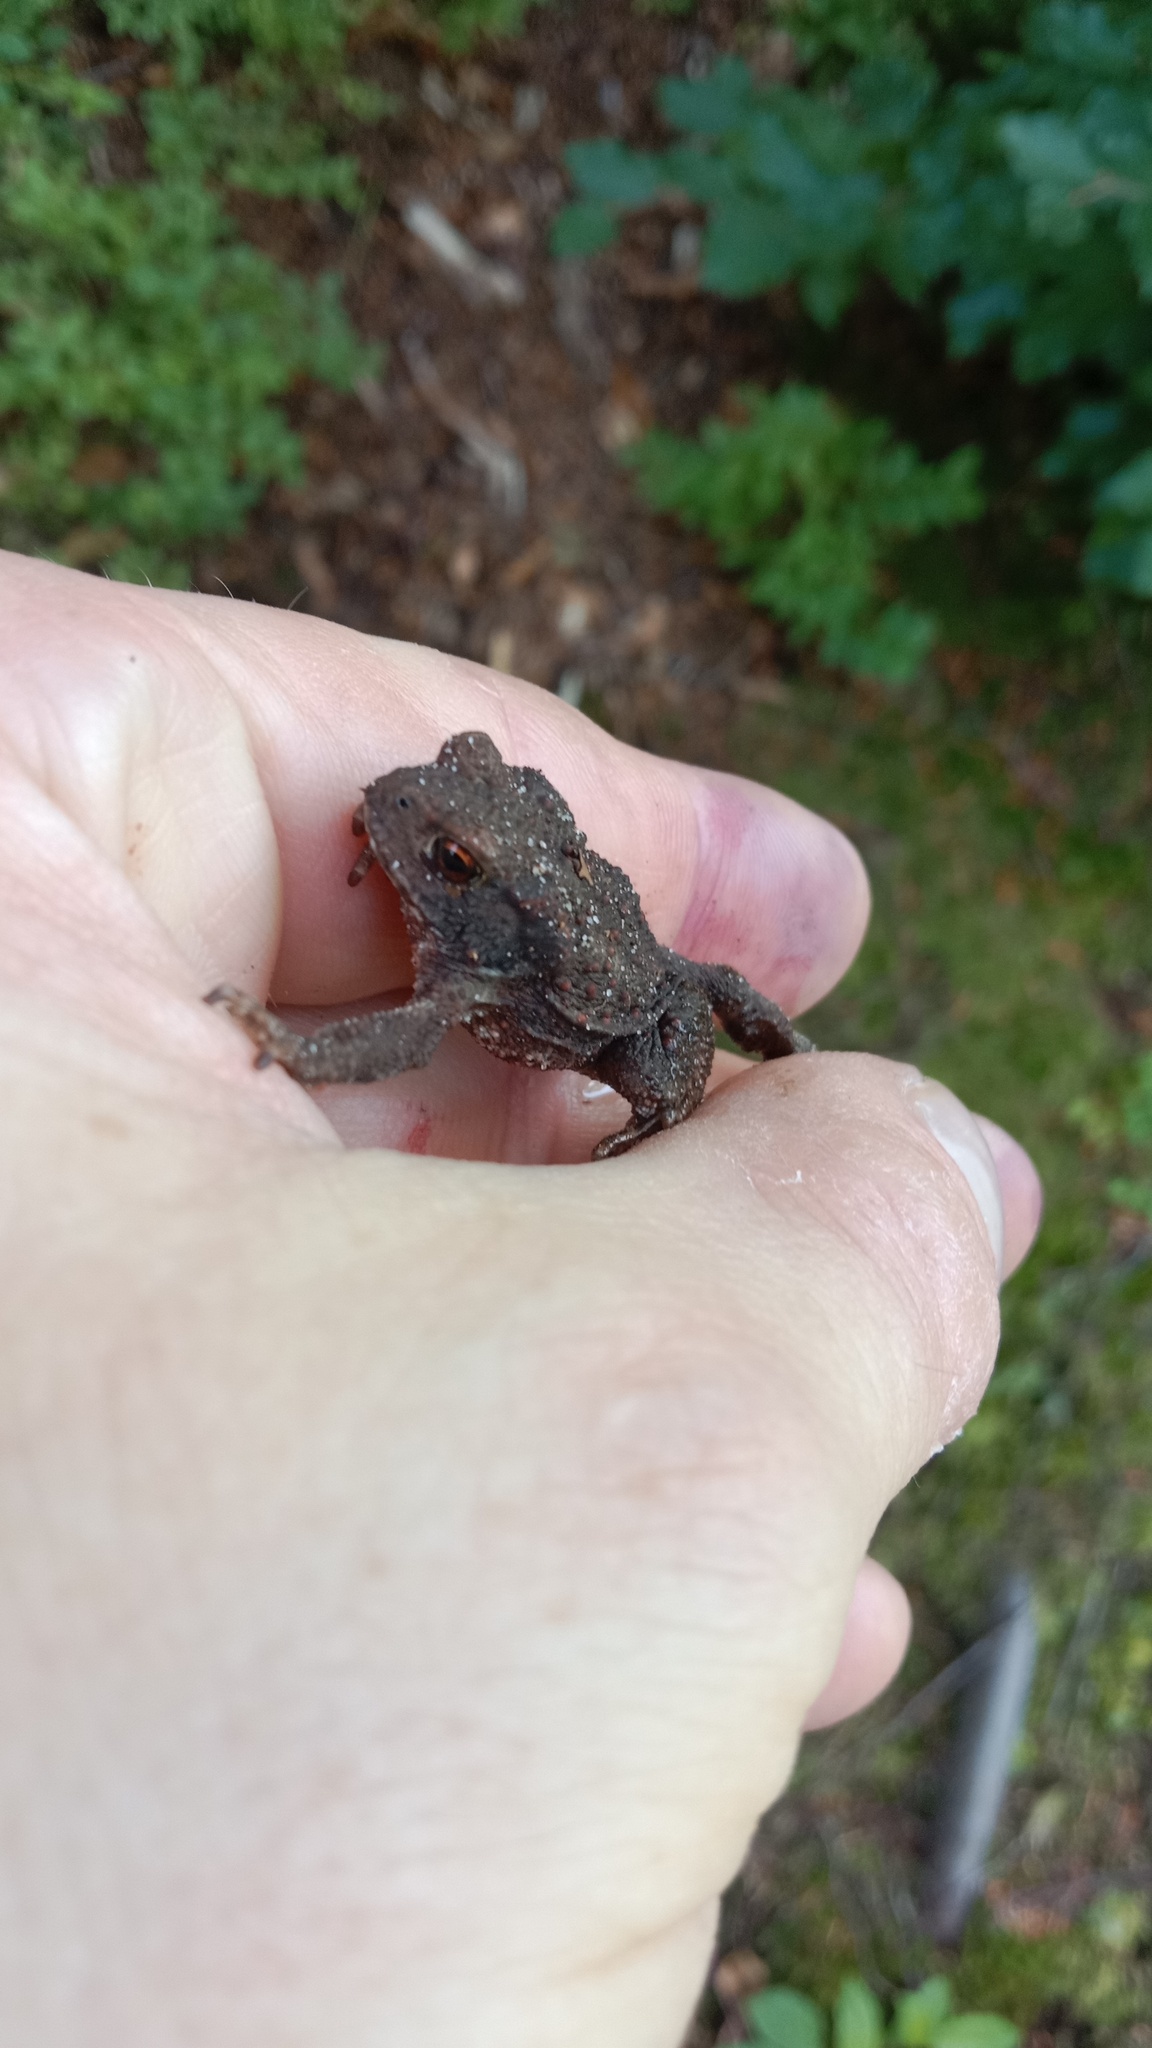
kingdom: Animalia
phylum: Chordata
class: Amphibia
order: Anura
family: Bufonidae
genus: Bufo
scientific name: Bufo bufo
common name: Common toad
